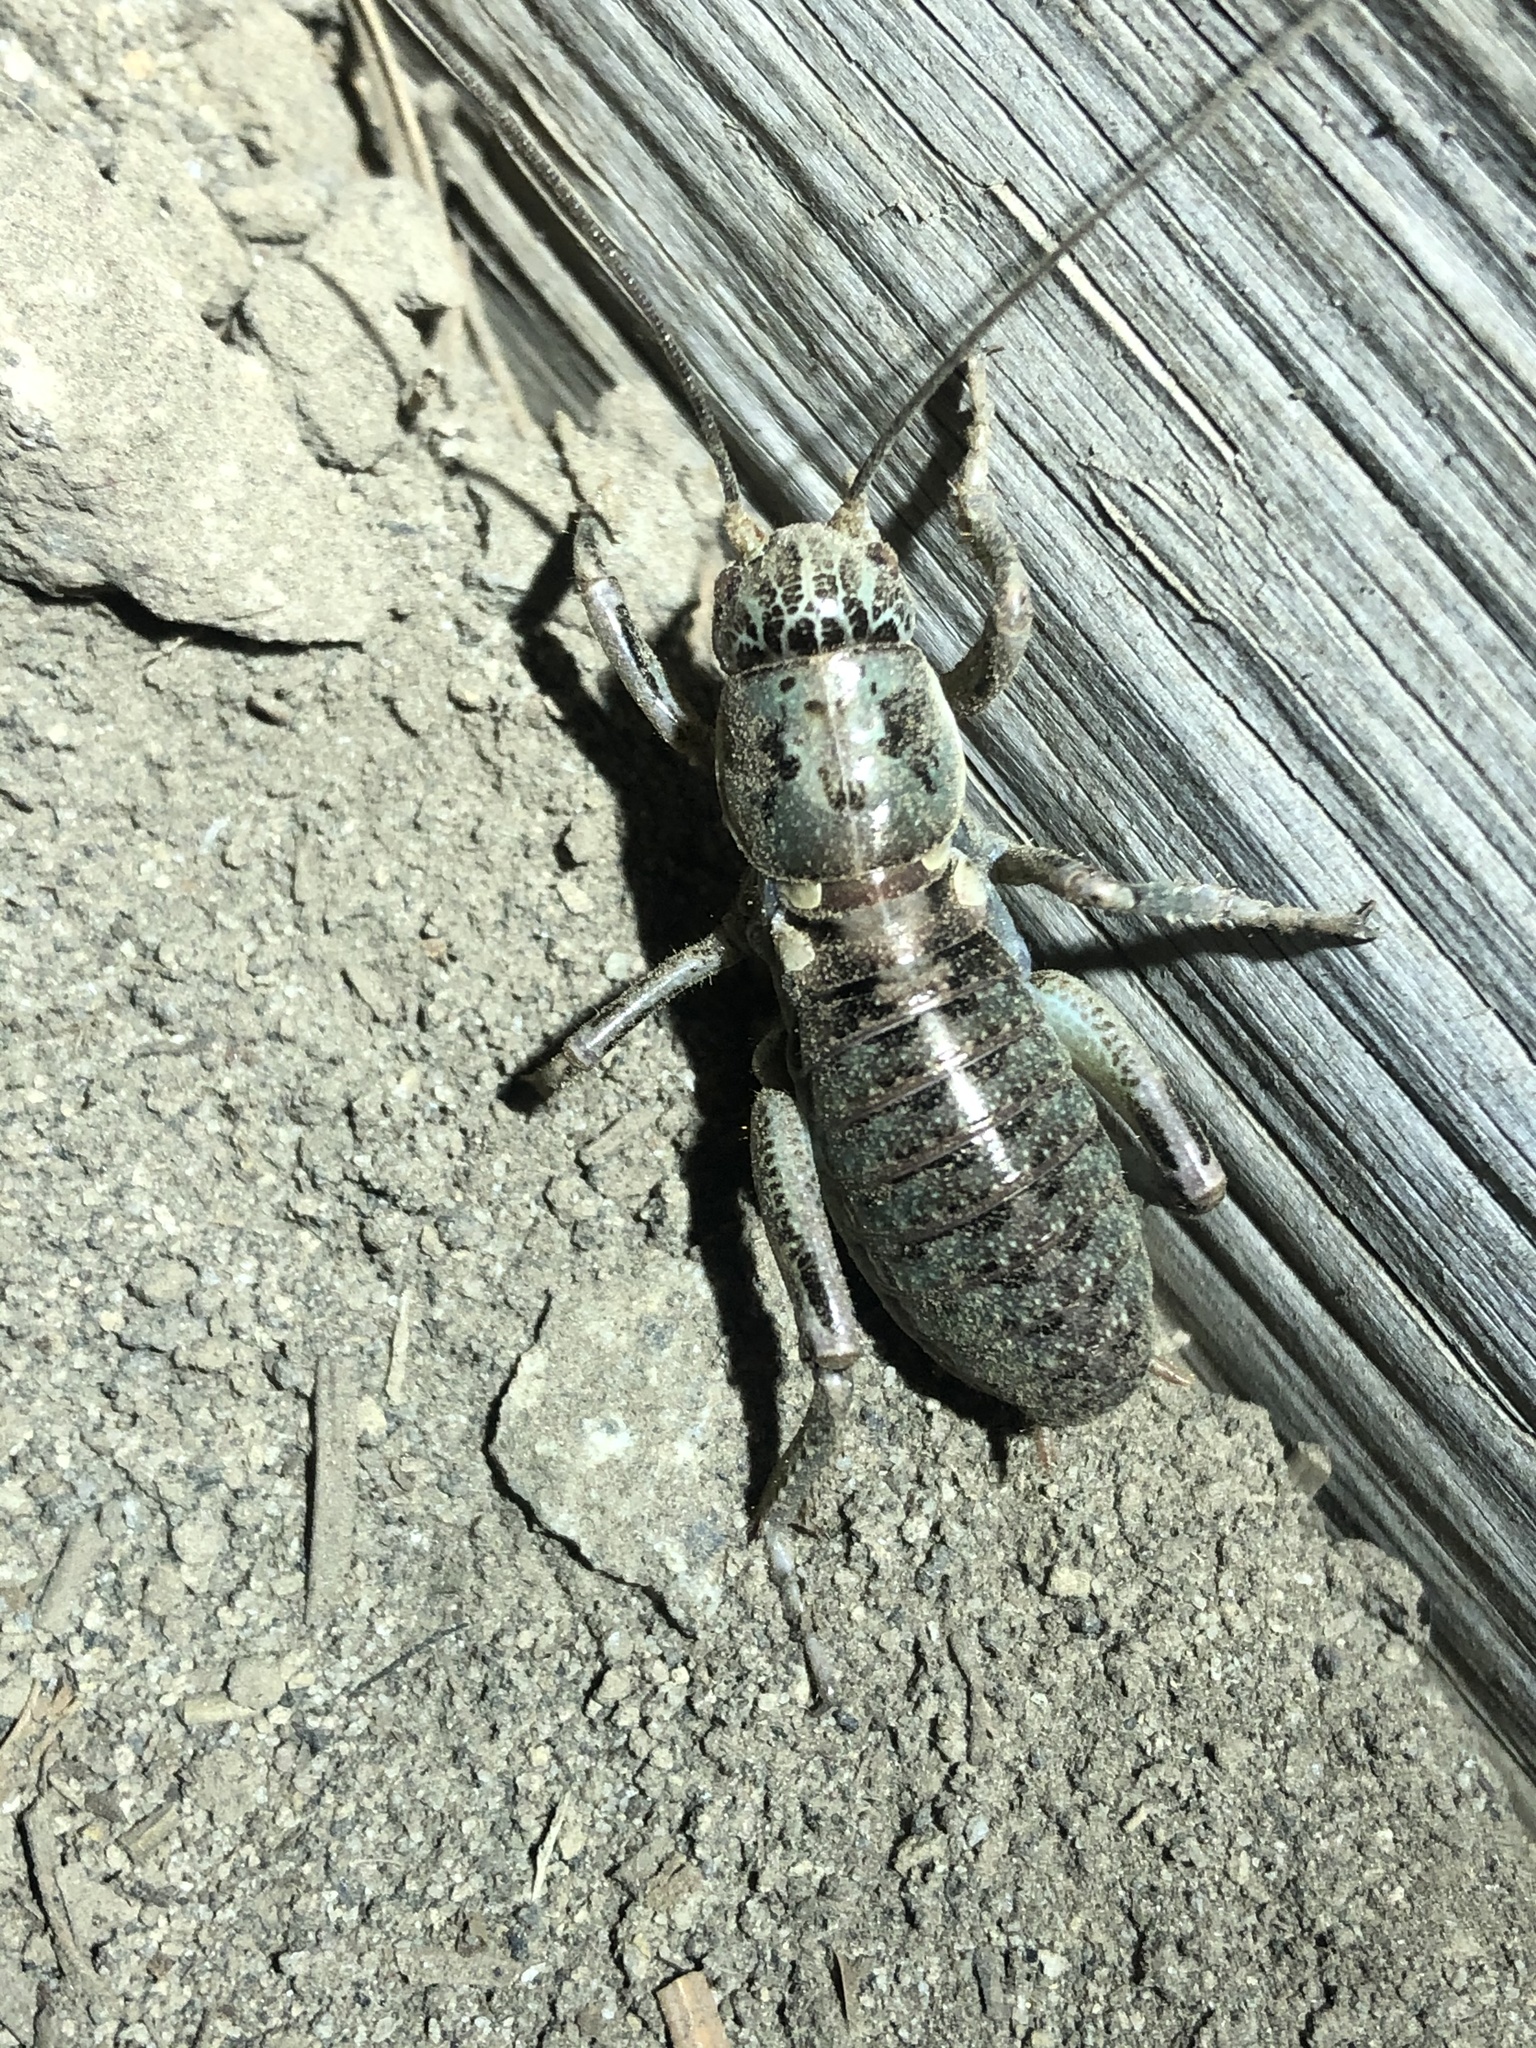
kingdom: Animalia
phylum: Arthropoda
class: Insecta
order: Orthoptera
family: Prophalangopsidae
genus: Cyphoderris
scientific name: Cyphoderris monstrosa
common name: Great grig
